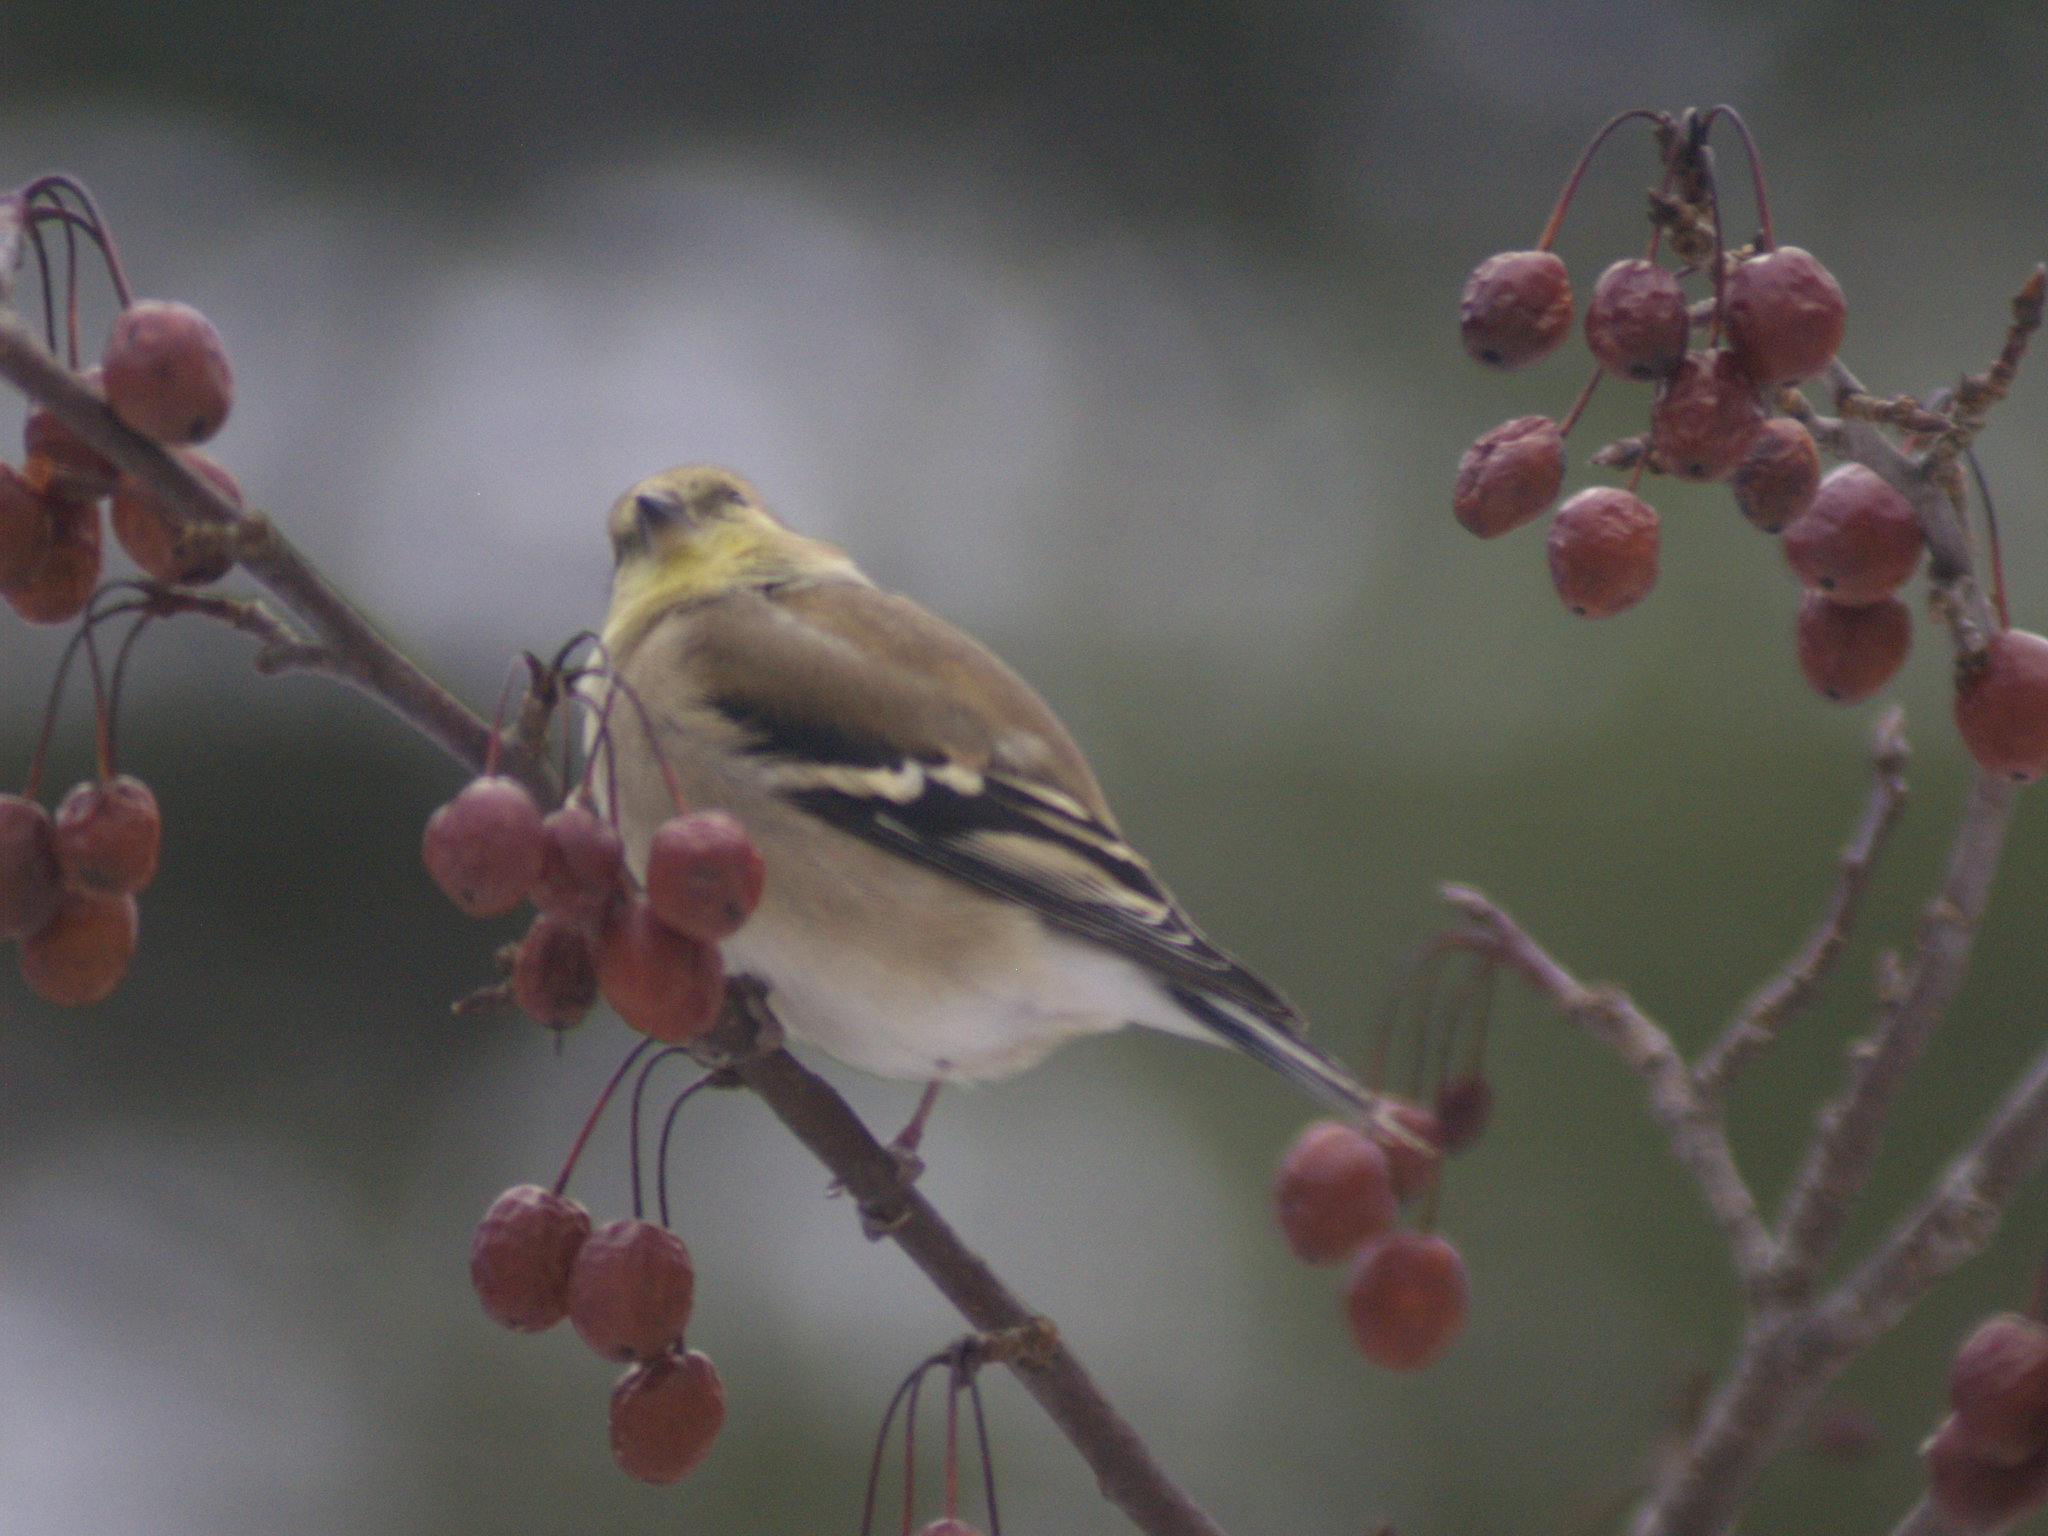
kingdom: Animalia
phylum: Chordata
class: Aves
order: Passeriformes
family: Fringillidae
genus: Spinus
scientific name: Spinus tristis
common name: American goldfinch
